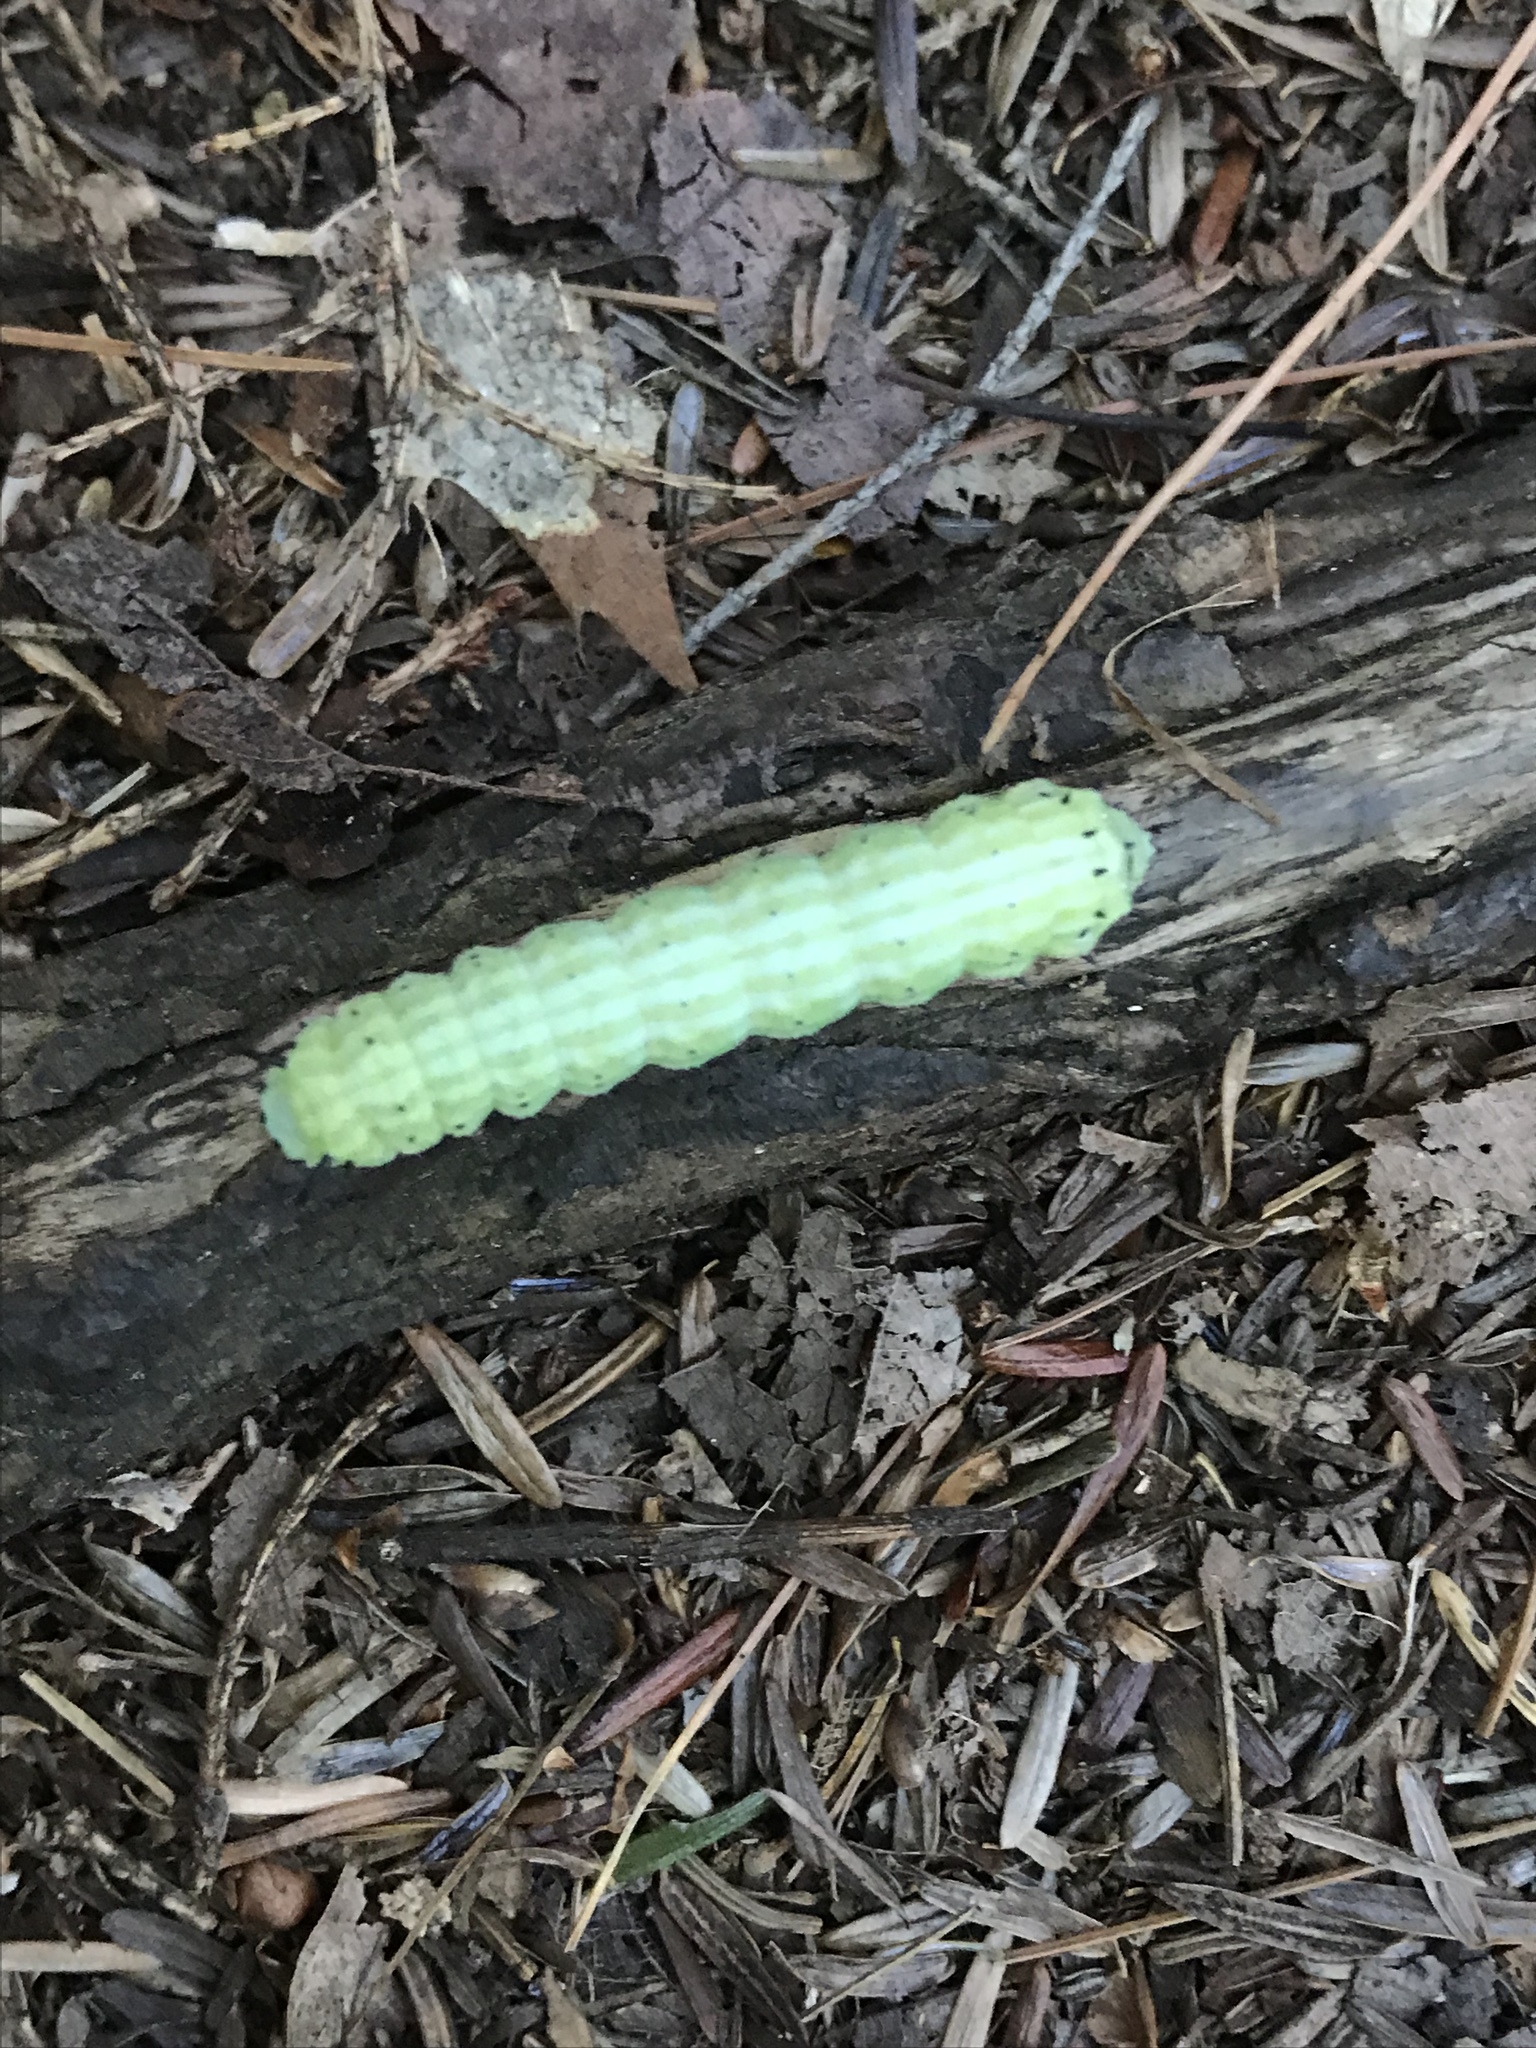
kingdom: Animalia
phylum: Arthropoda
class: Insecta
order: Lepidoptera
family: Saturniidae
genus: Dryocampa
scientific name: Dryocampa rubicunda
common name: Rosy maple moth
